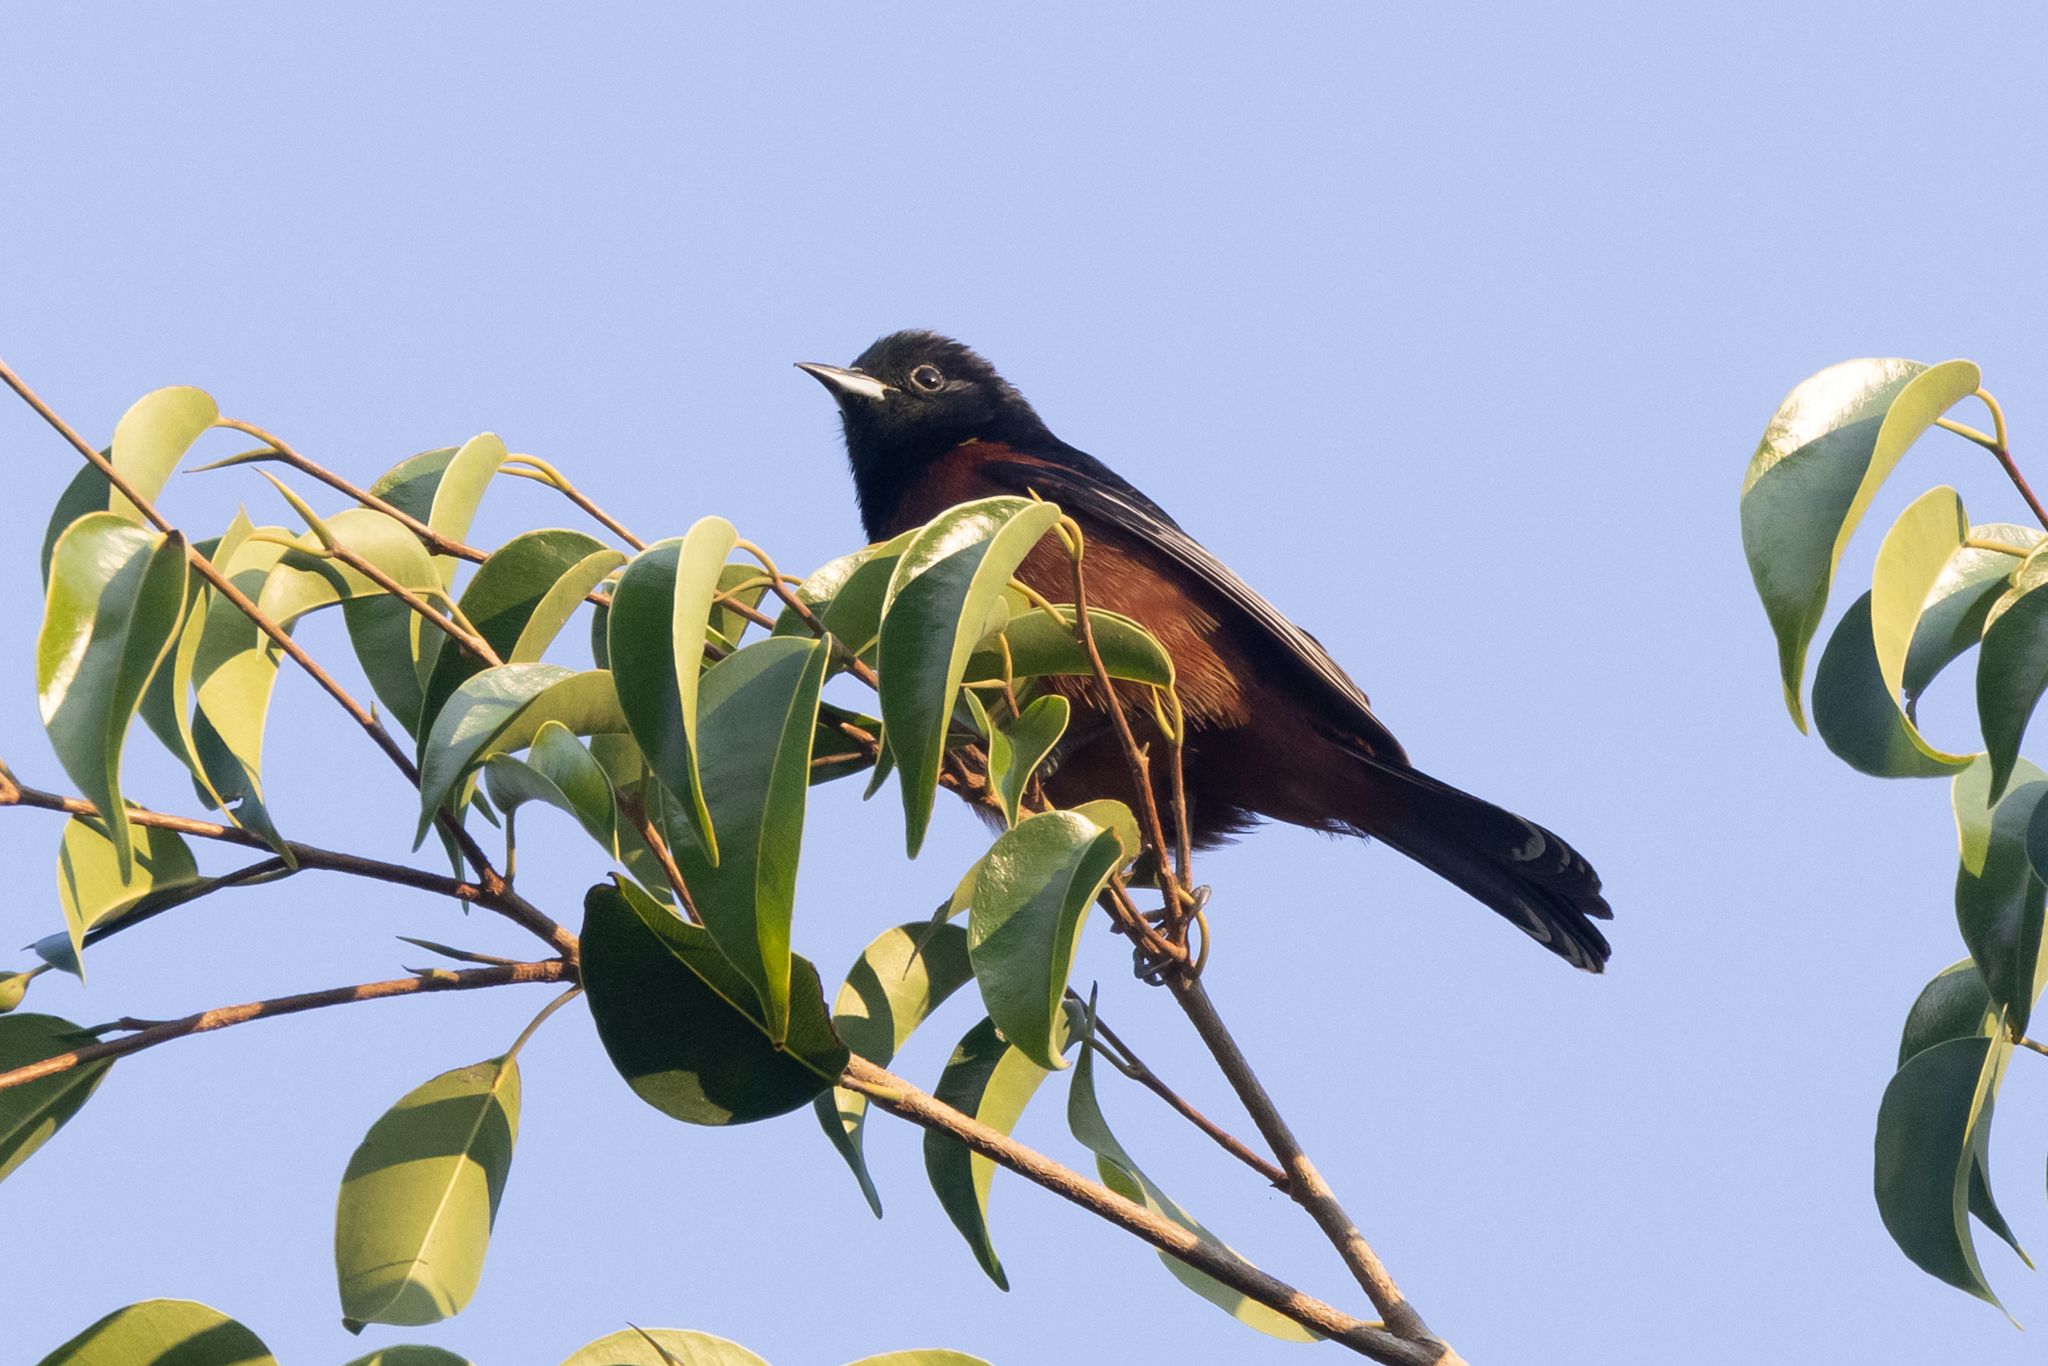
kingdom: Animalia
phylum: Chordata
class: Aves
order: Passeriformes
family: Icteridae
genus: Icterus
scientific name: Icterus spurius
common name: Orchard oriole
